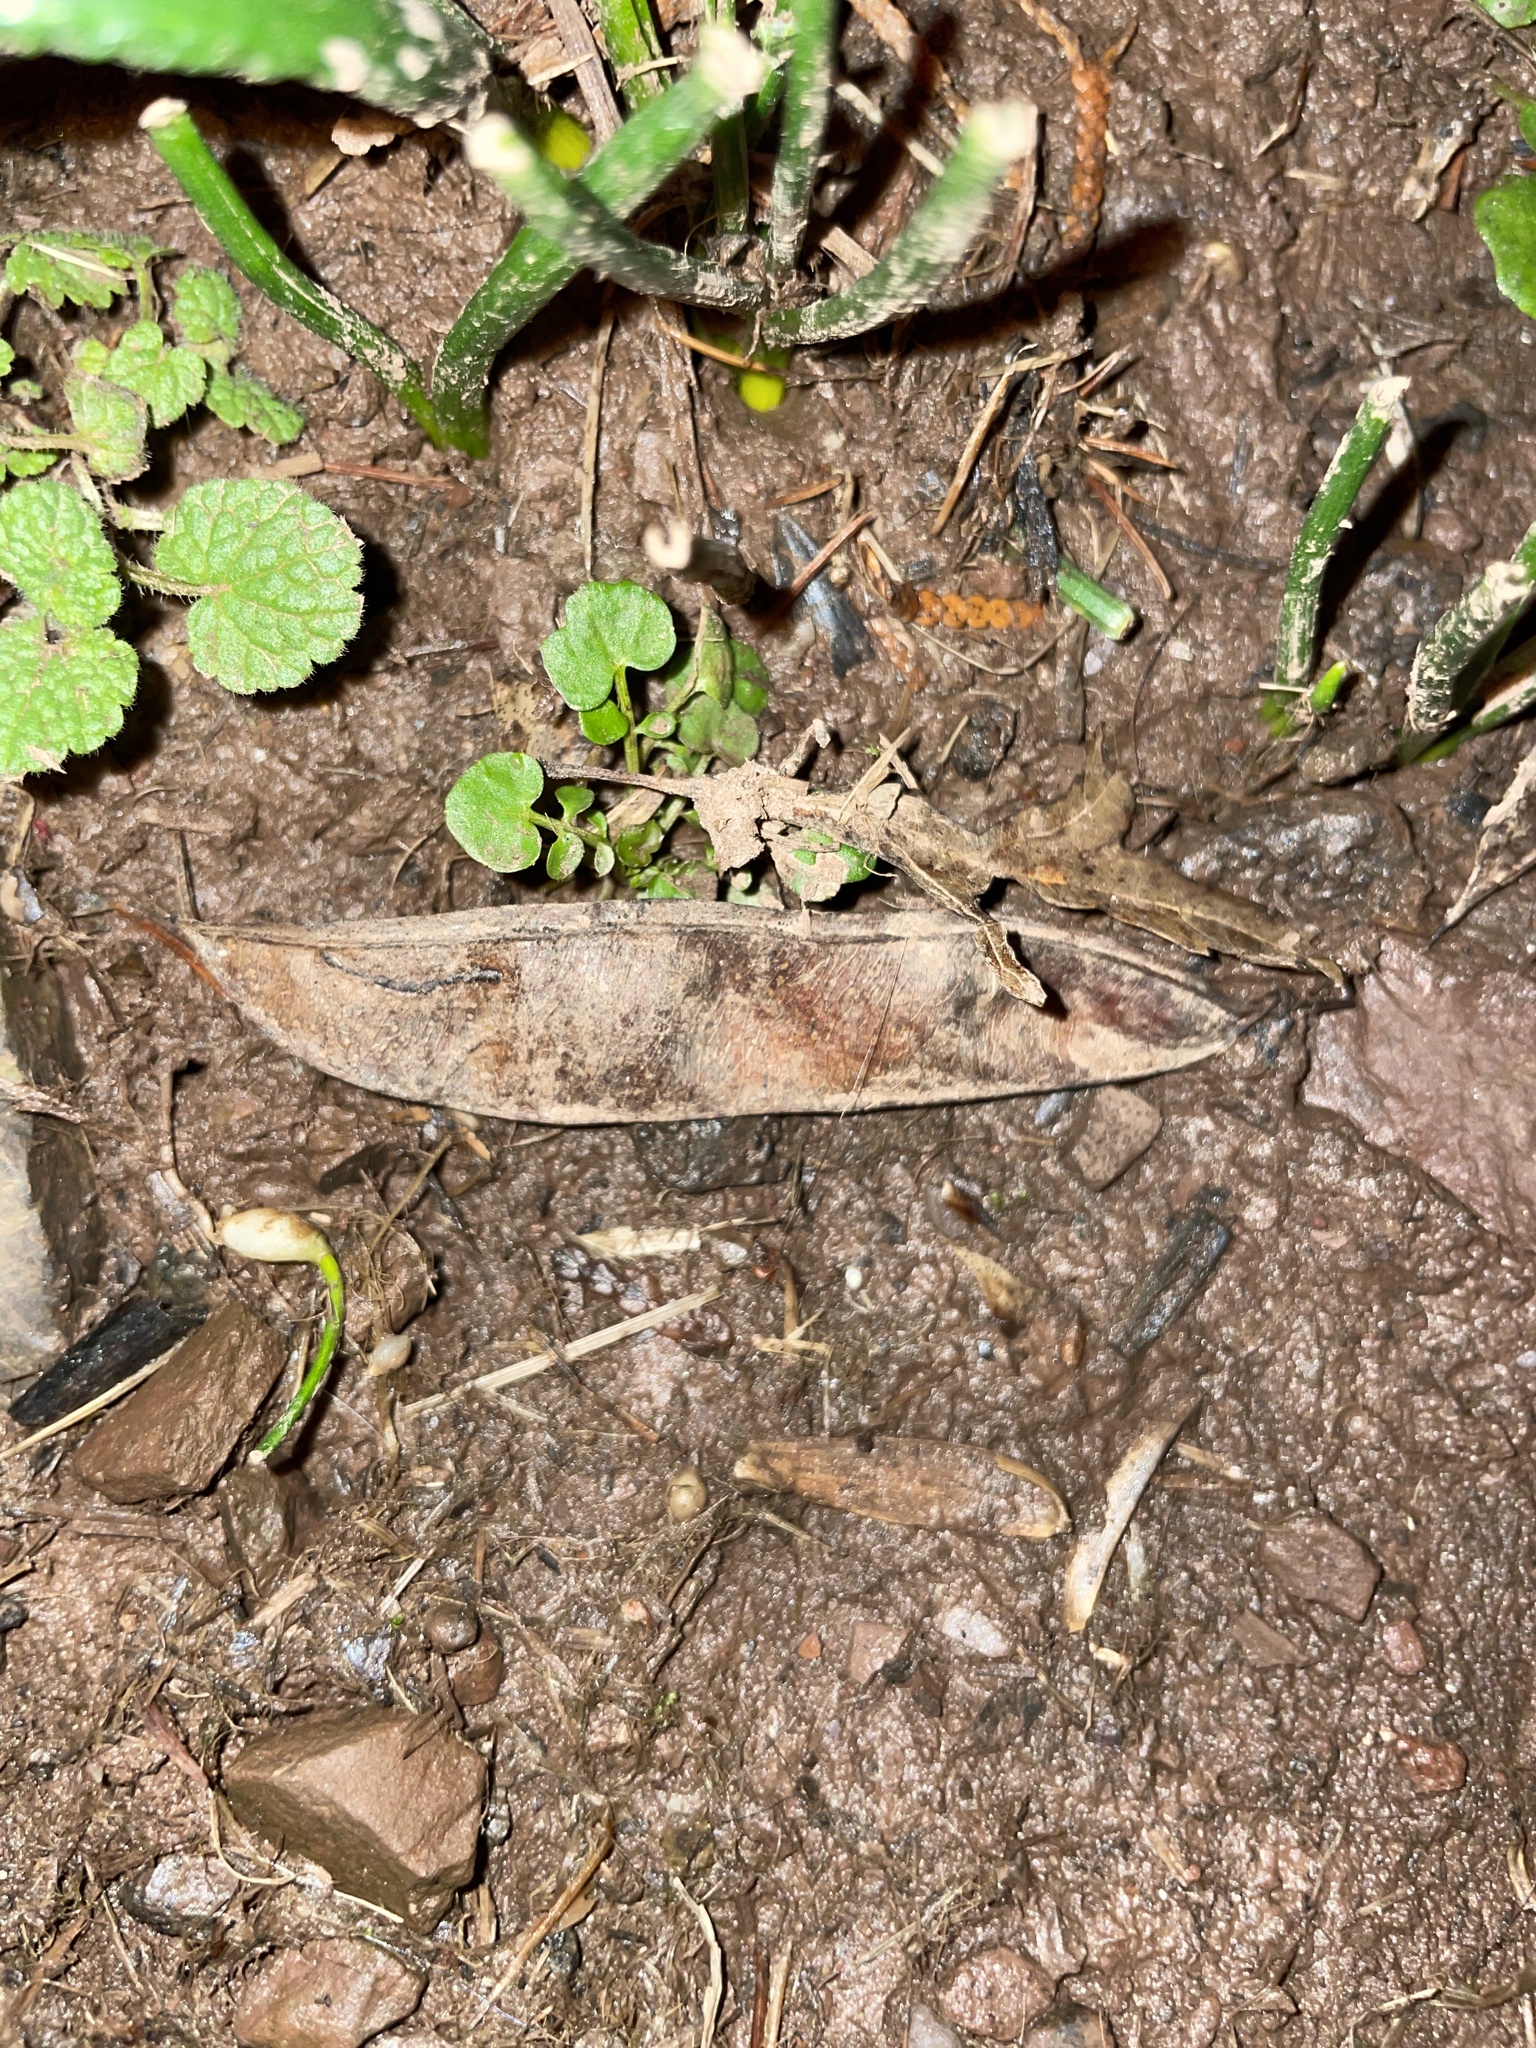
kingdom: Plantae
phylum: Tracheophyta
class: Magnoliopsida
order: Fabales
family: Fabaceae
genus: Cercis
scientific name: Cercis canadensis
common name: Eastern redbud
